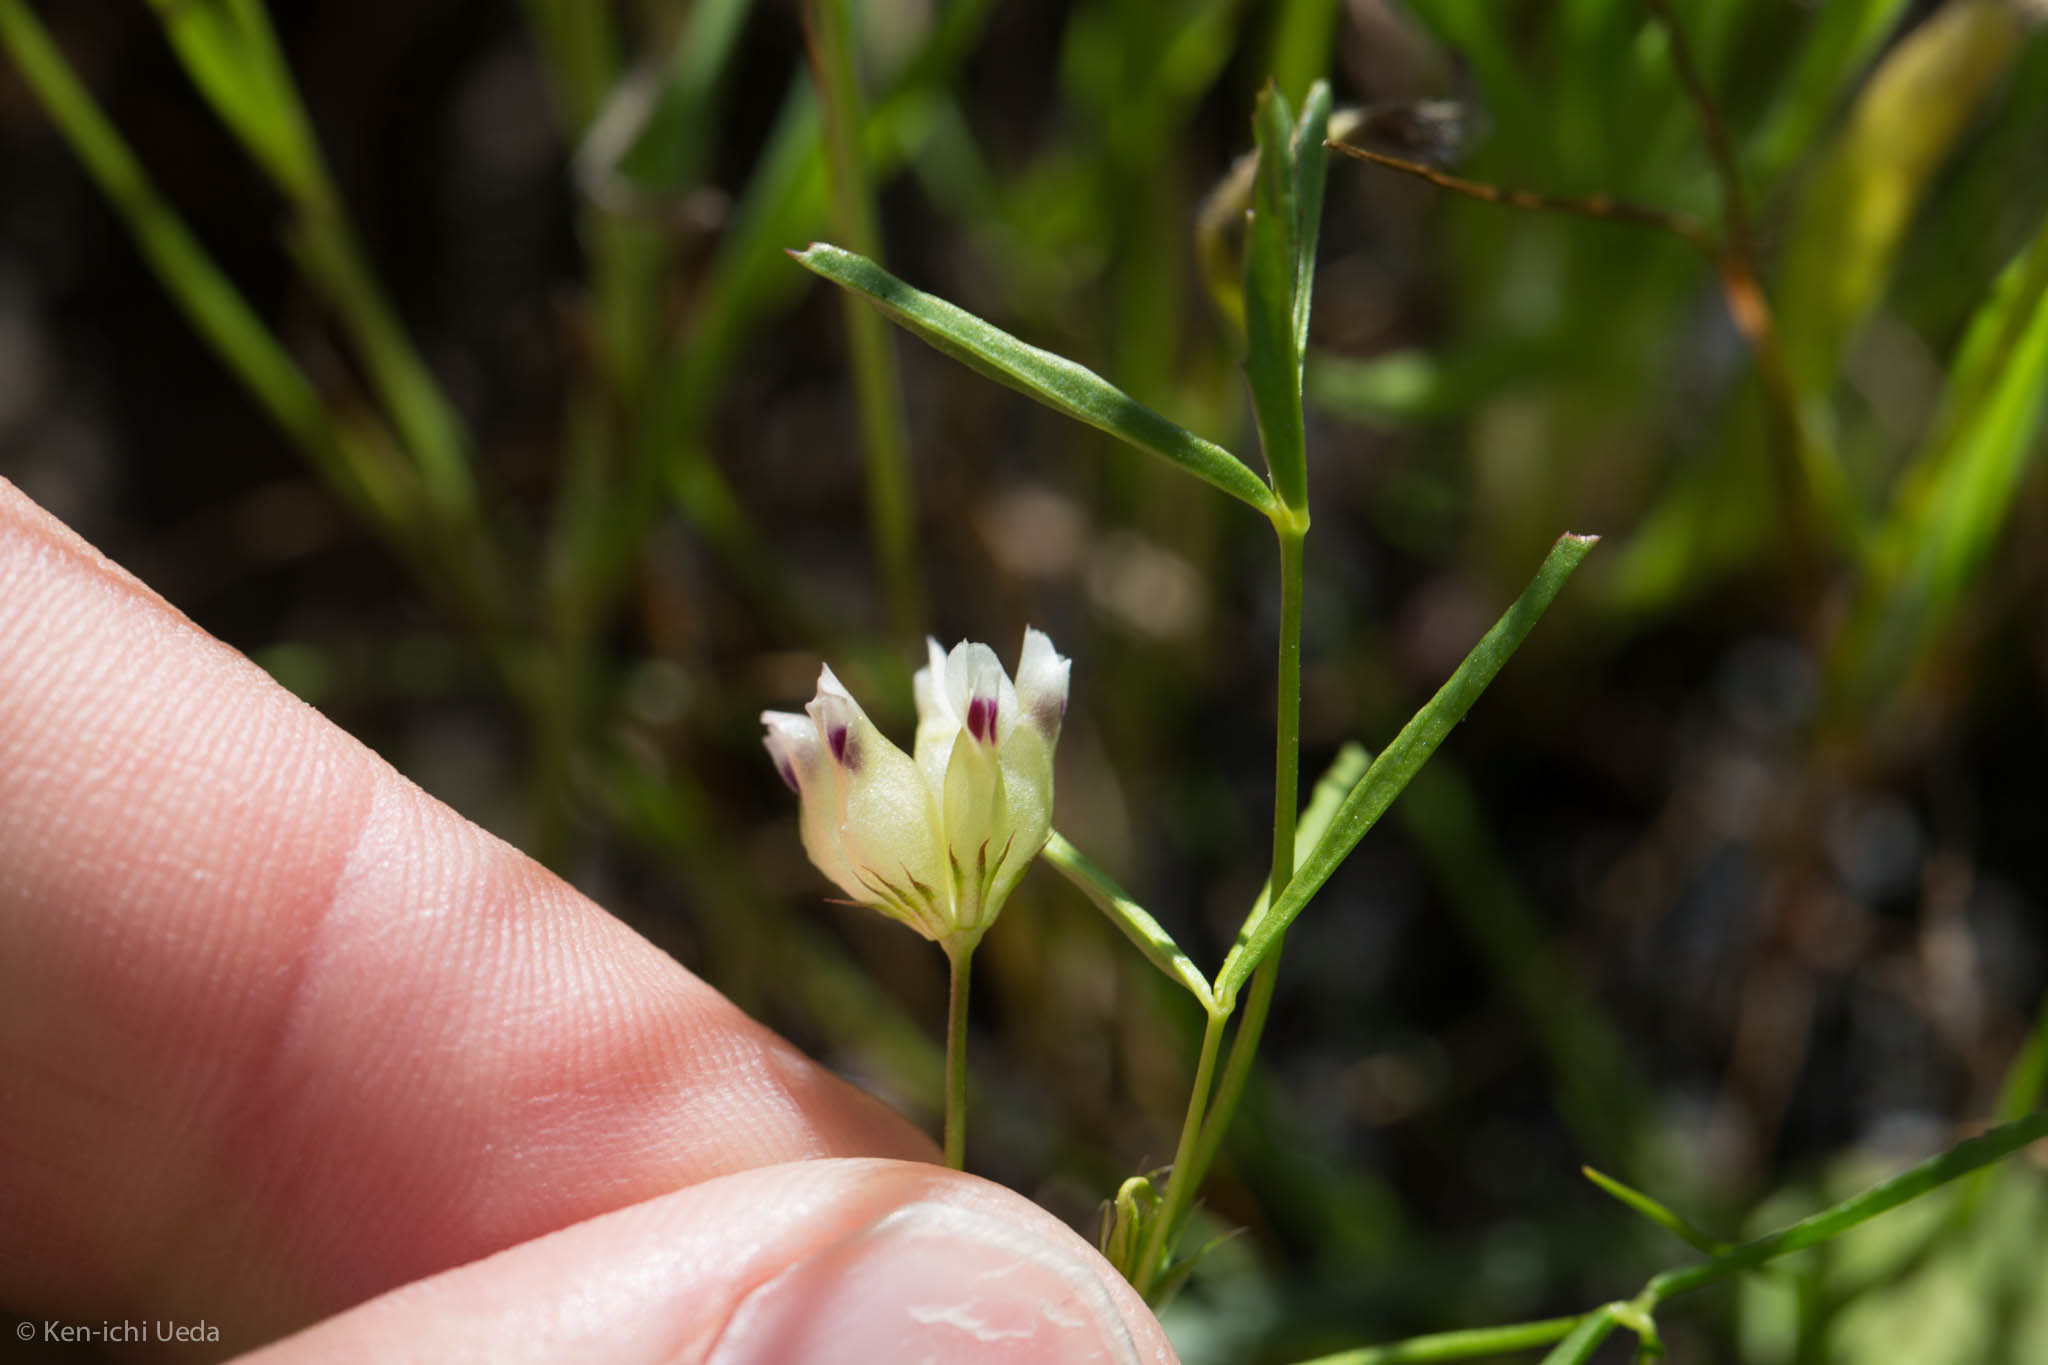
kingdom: Plantae
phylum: Tracheophyta
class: Magnoliopsida
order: Fabales
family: Fabaceae
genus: Trifolium
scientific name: Trifolium depauperatum
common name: Poverty clover
